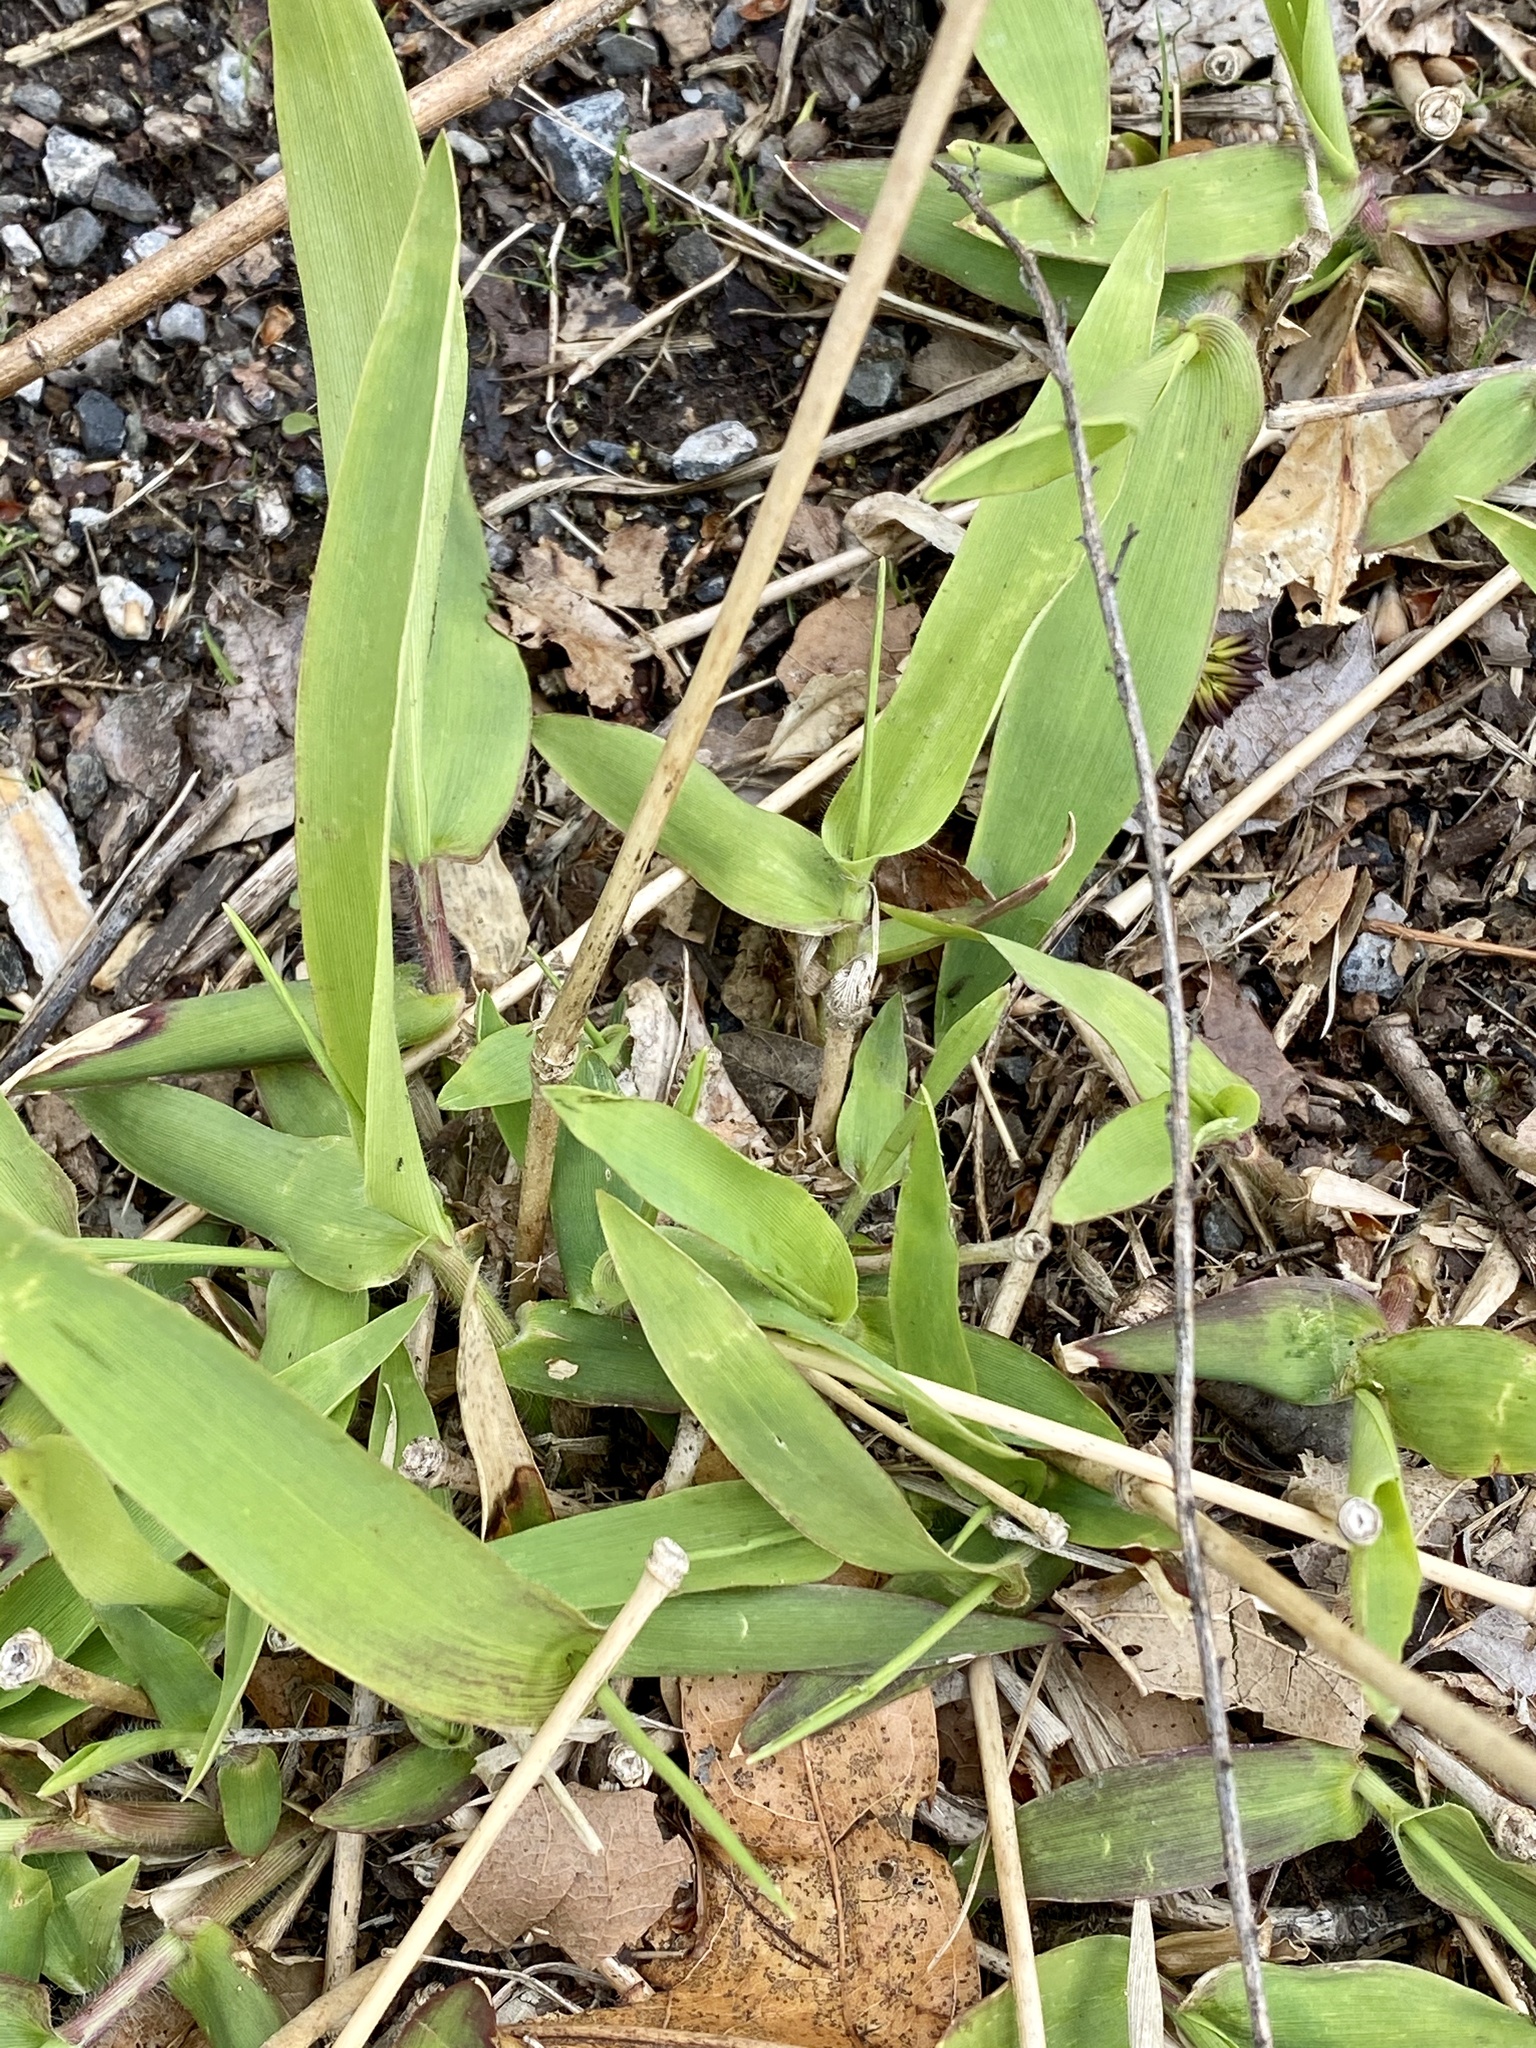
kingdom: Plantae
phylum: Tracheophyta
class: Liliopsida
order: Poales
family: Poaceae
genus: Dichanthelium
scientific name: Dichanthelium clandestinum
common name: Deer-tongue grass
